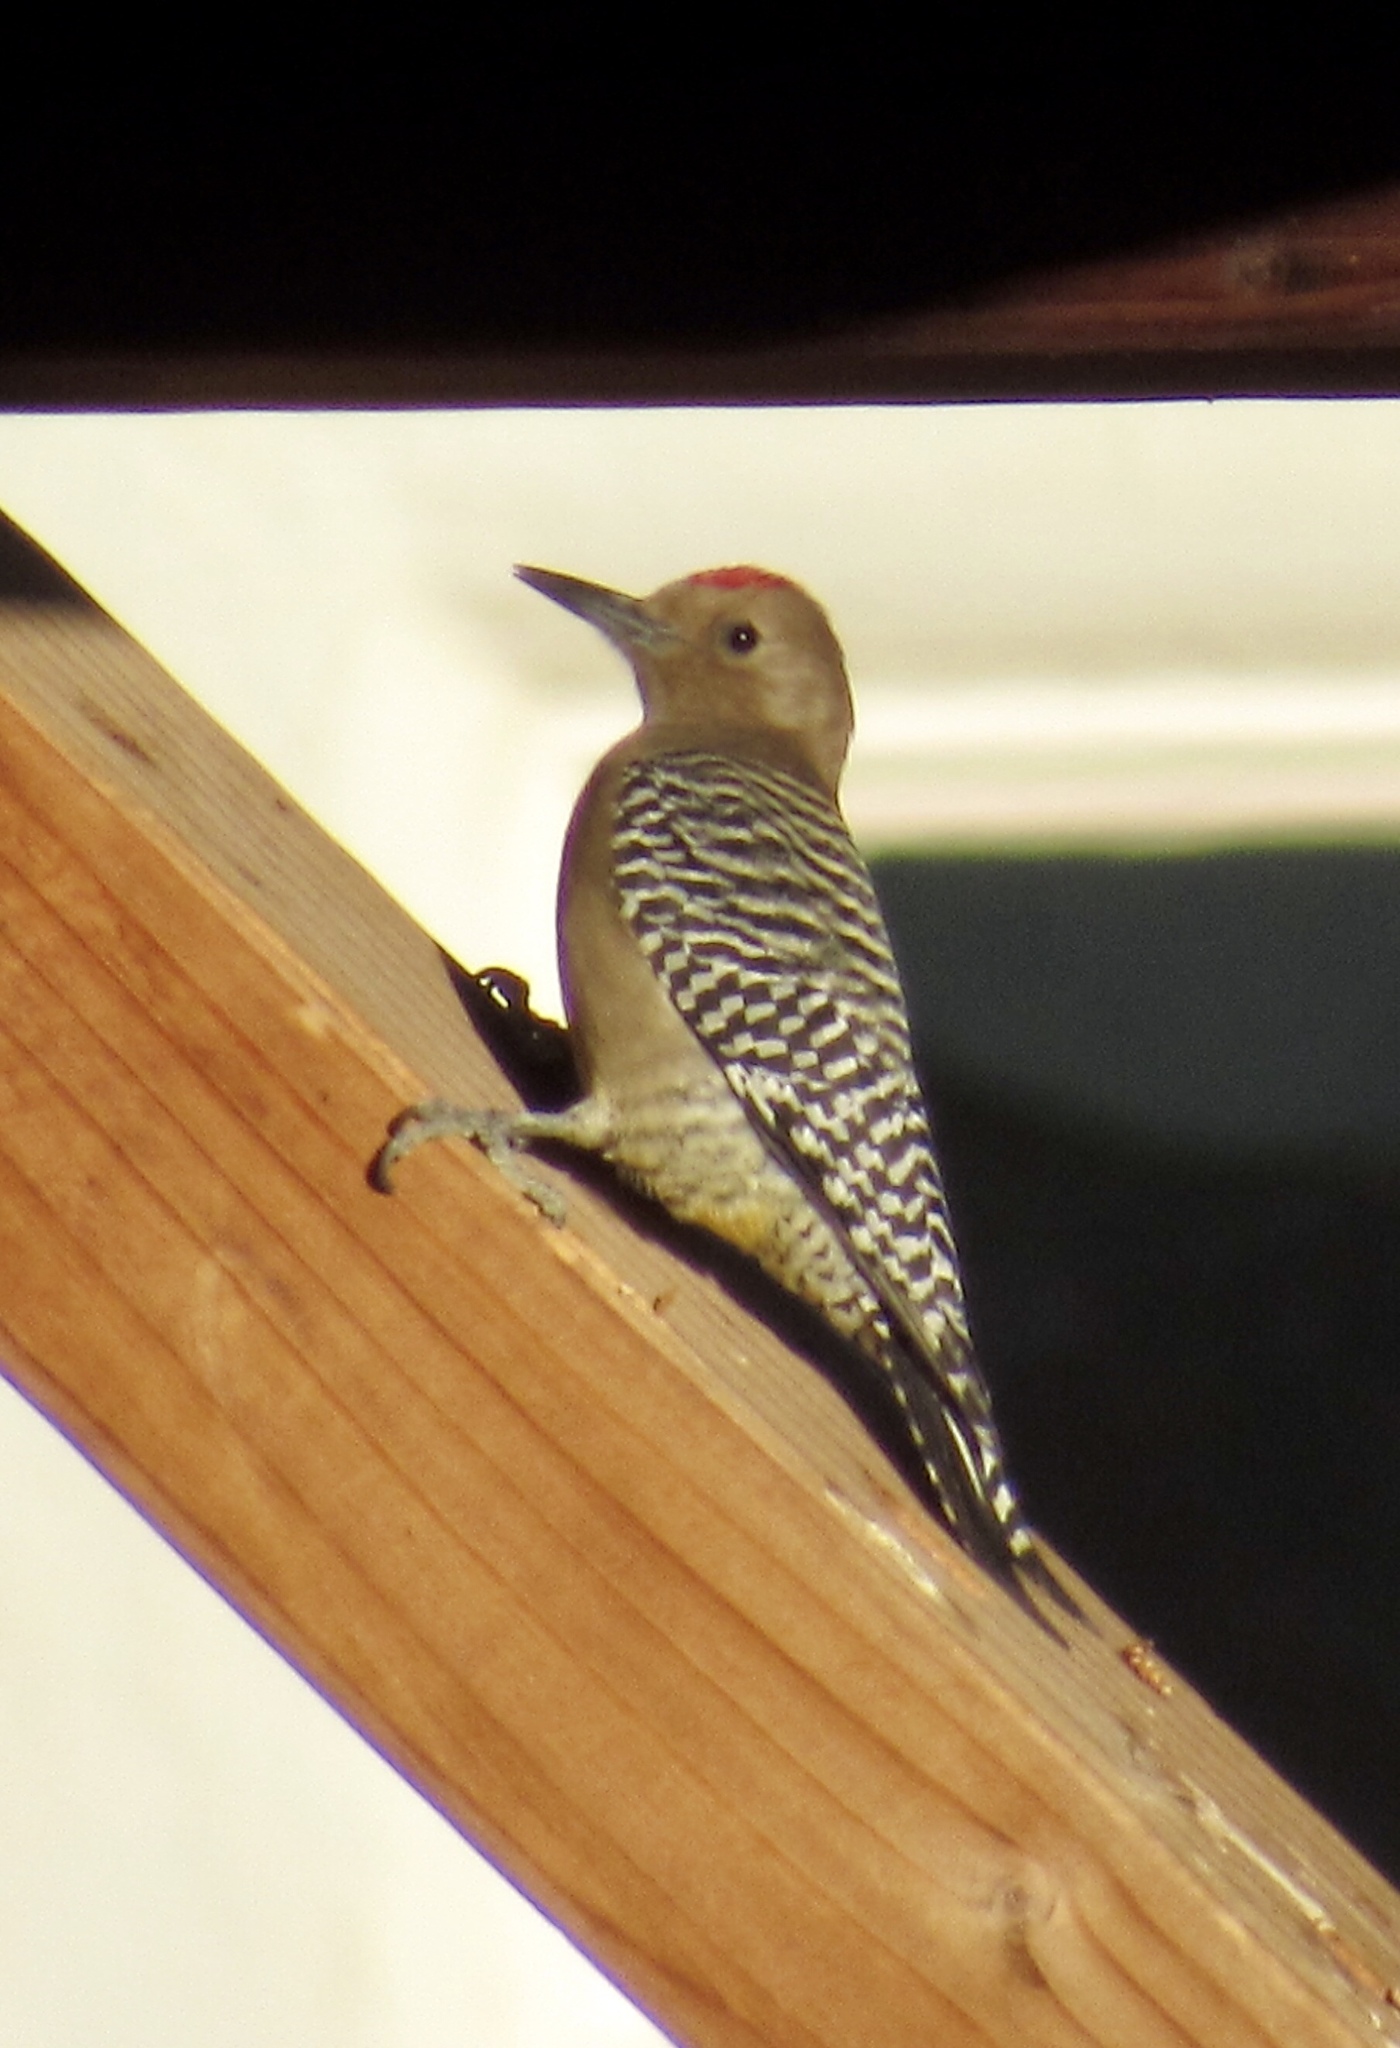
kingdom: Animalia
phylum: Chordata
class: Aves
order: Piciformes
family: Picidae
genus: Melanerpes
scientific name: Melanerpes uropygialis
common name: Gila woodpecker
